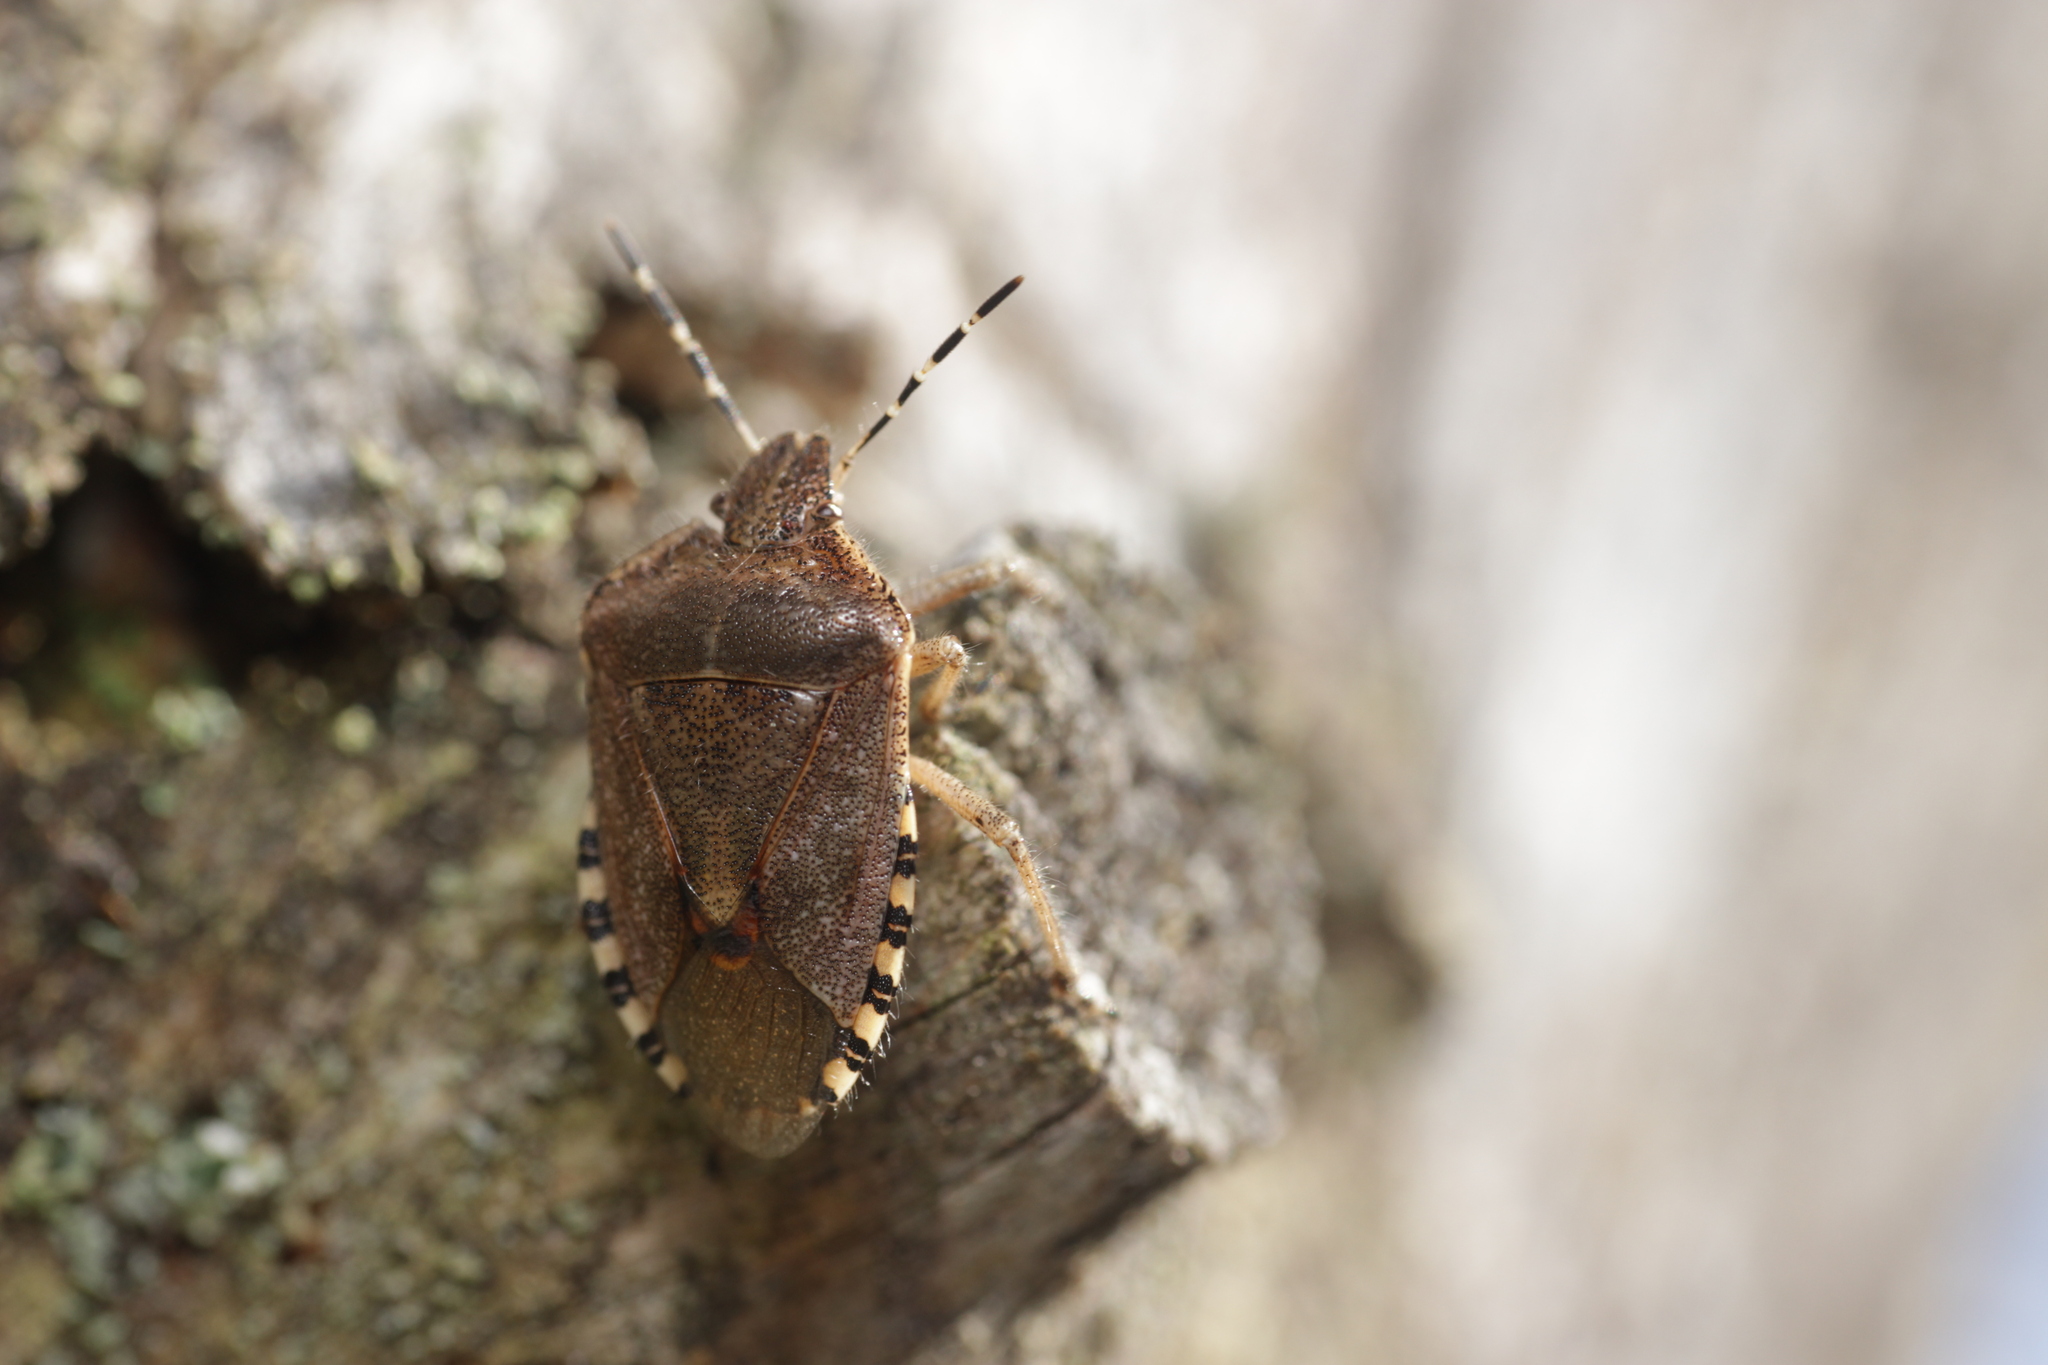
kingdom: Animalia
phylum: Arthropoda
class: Insecta
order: Hemiptera
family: Pentatomidae
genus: Dolycoris
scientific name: Dolycoris baccarum
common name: Sloe bug
